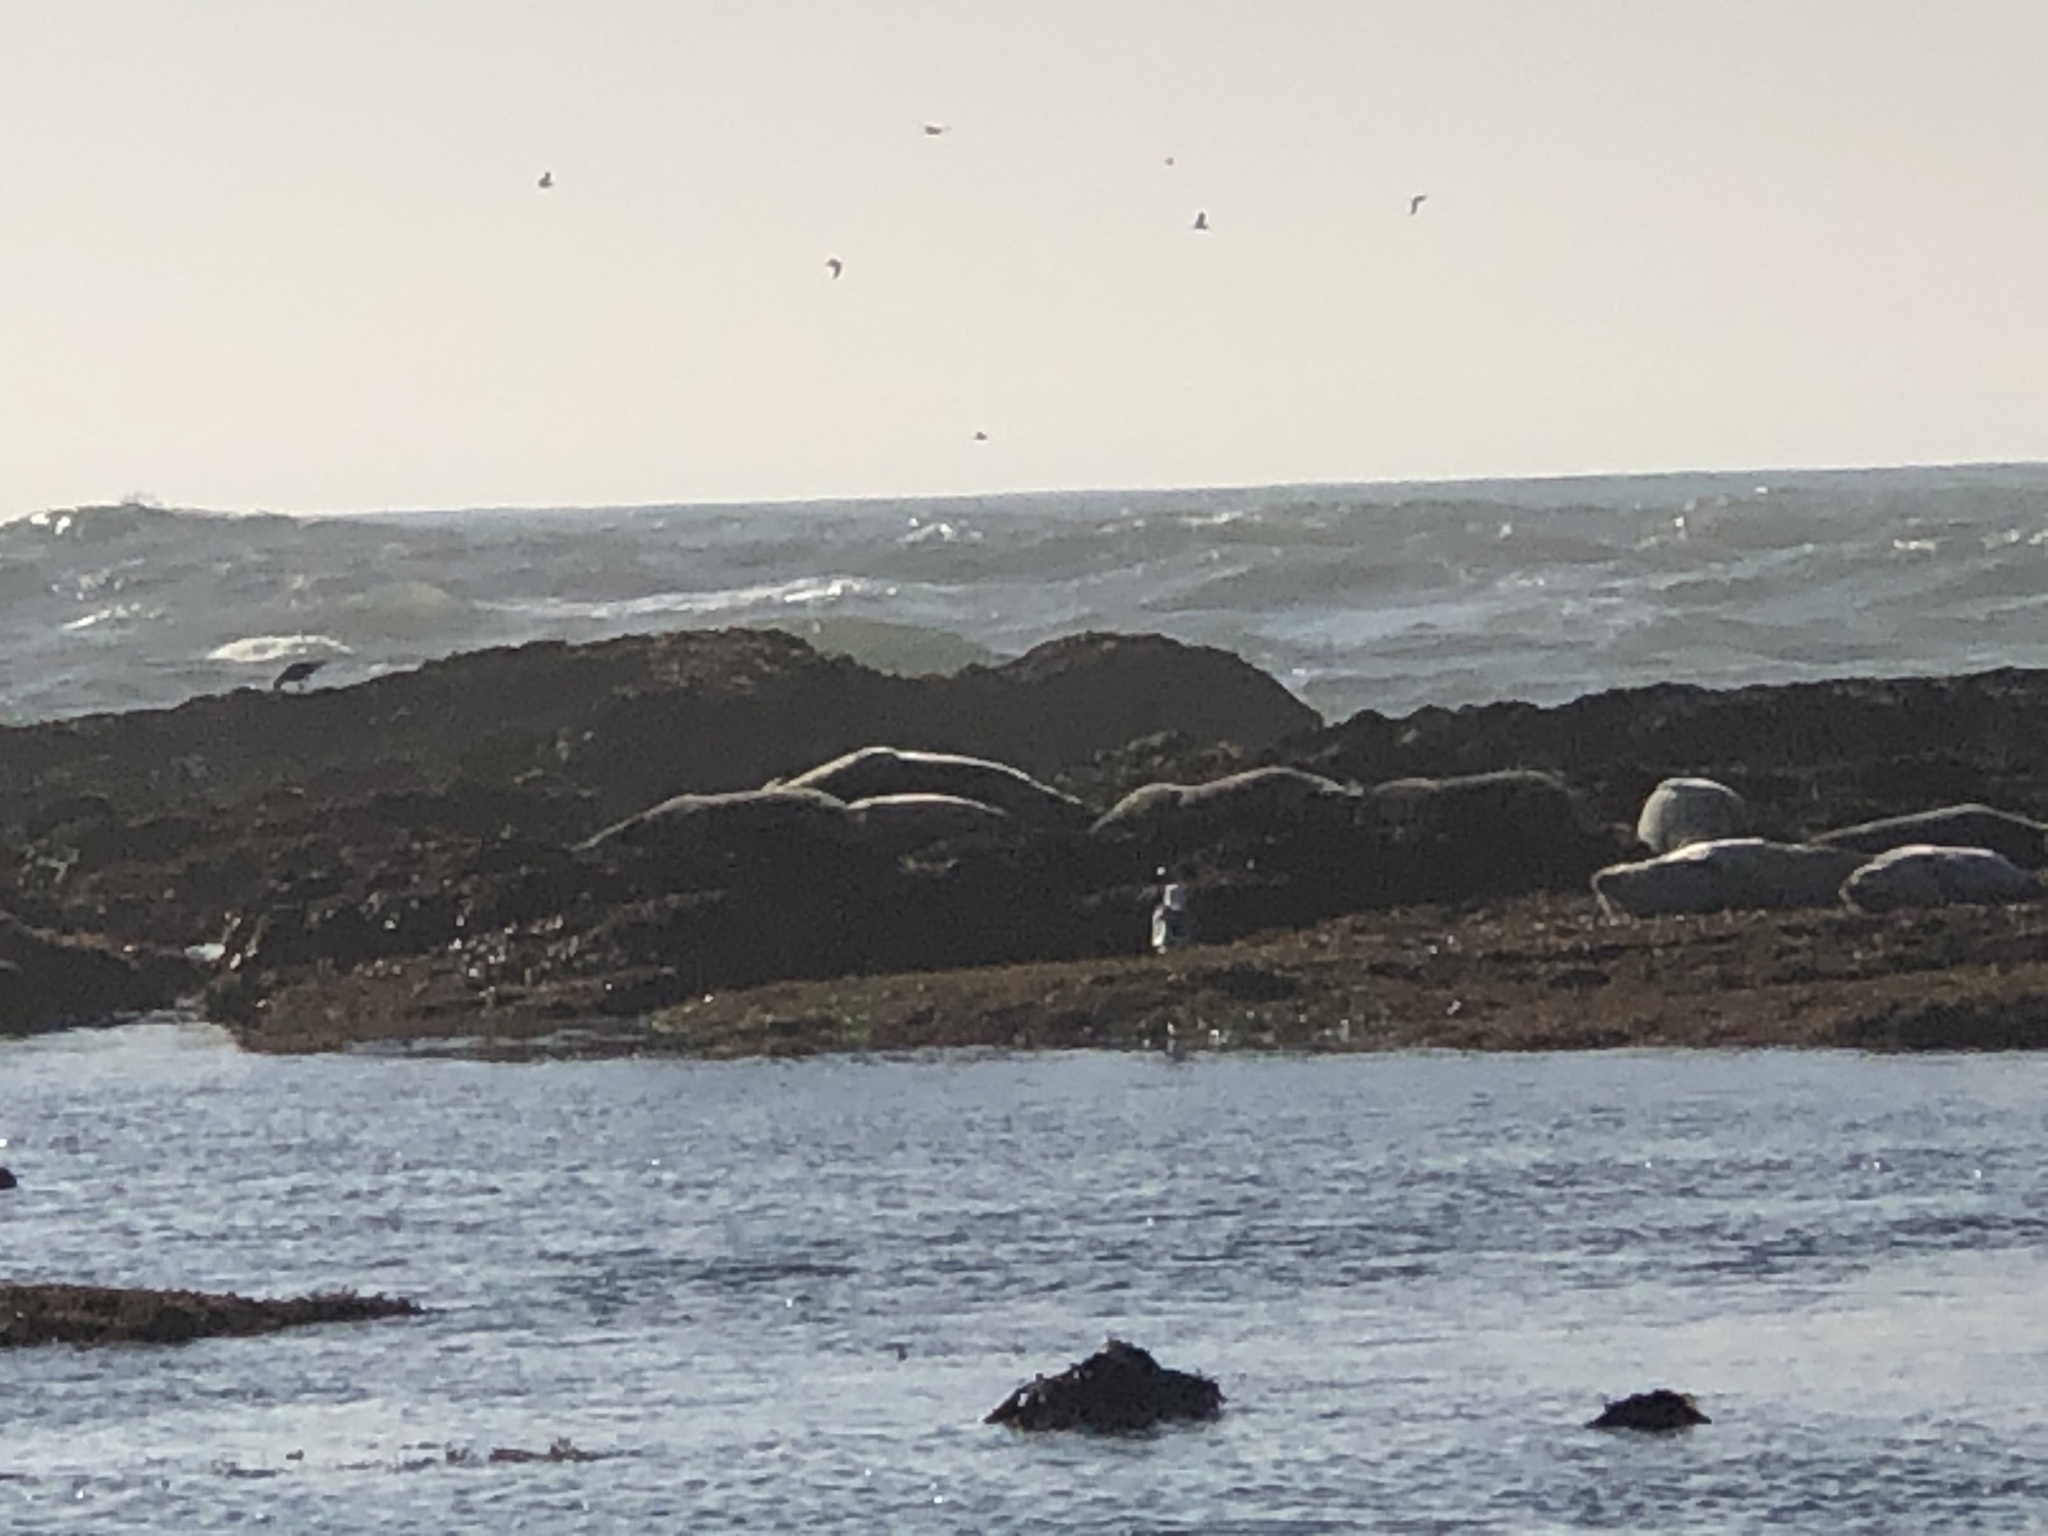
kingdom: Animalia
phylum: Chordata
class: Mammalia
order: Carnivora
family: Phocidae
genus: Phoca
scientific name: Phoca vitulina
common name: Harbor seal
